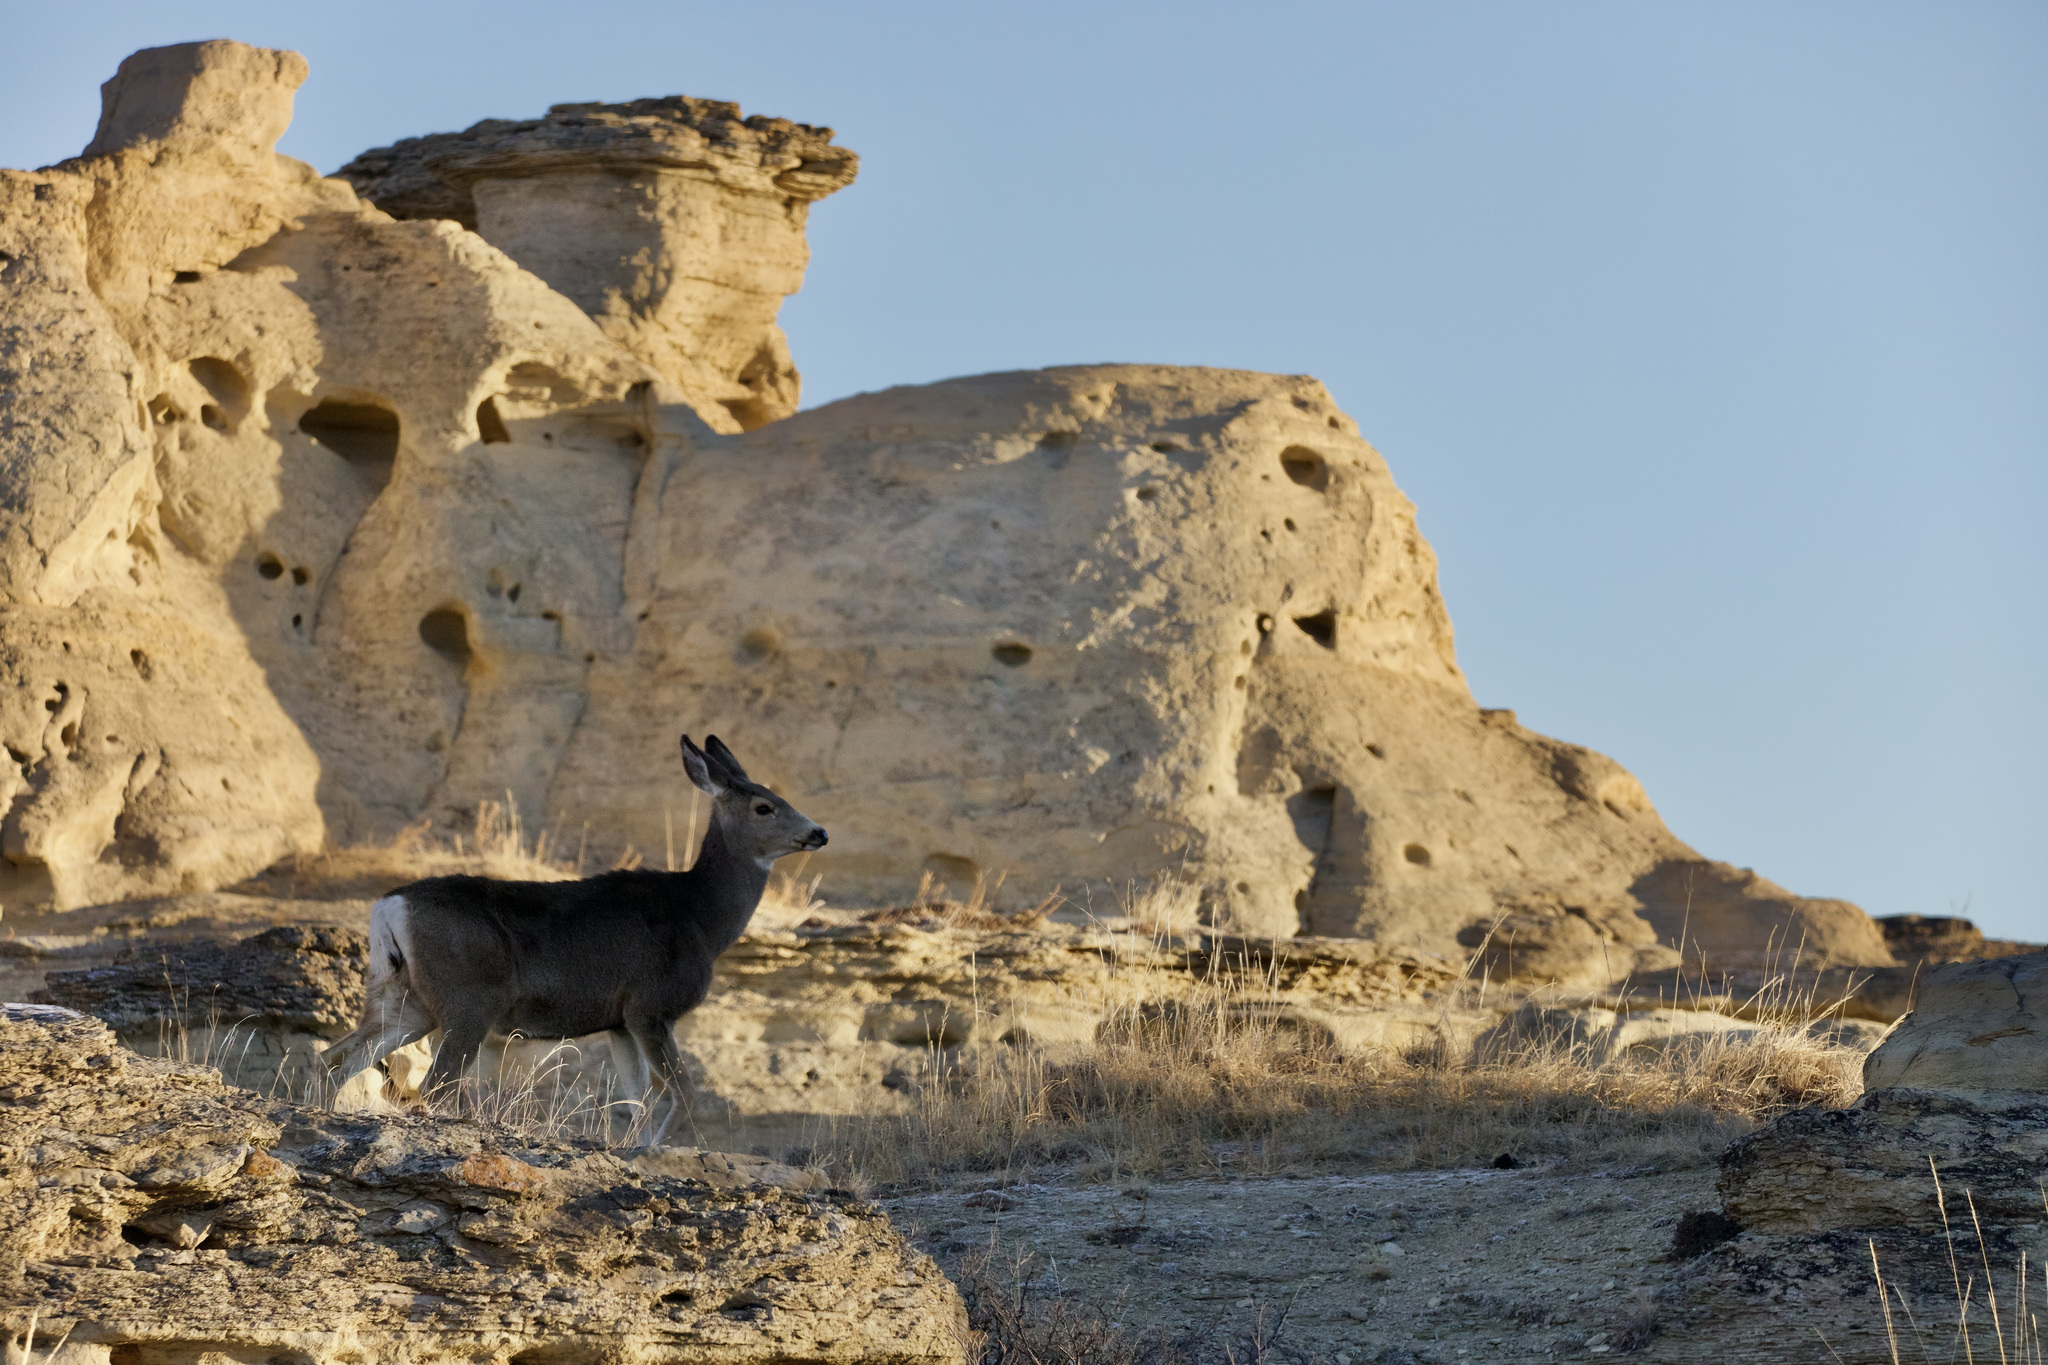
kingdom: Animalia
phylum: Chordata
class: Mammalia
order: Artiodactyla
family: Cervidae
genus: Odocoileus
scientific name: Odocoileus hemionus
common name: Mule deer
